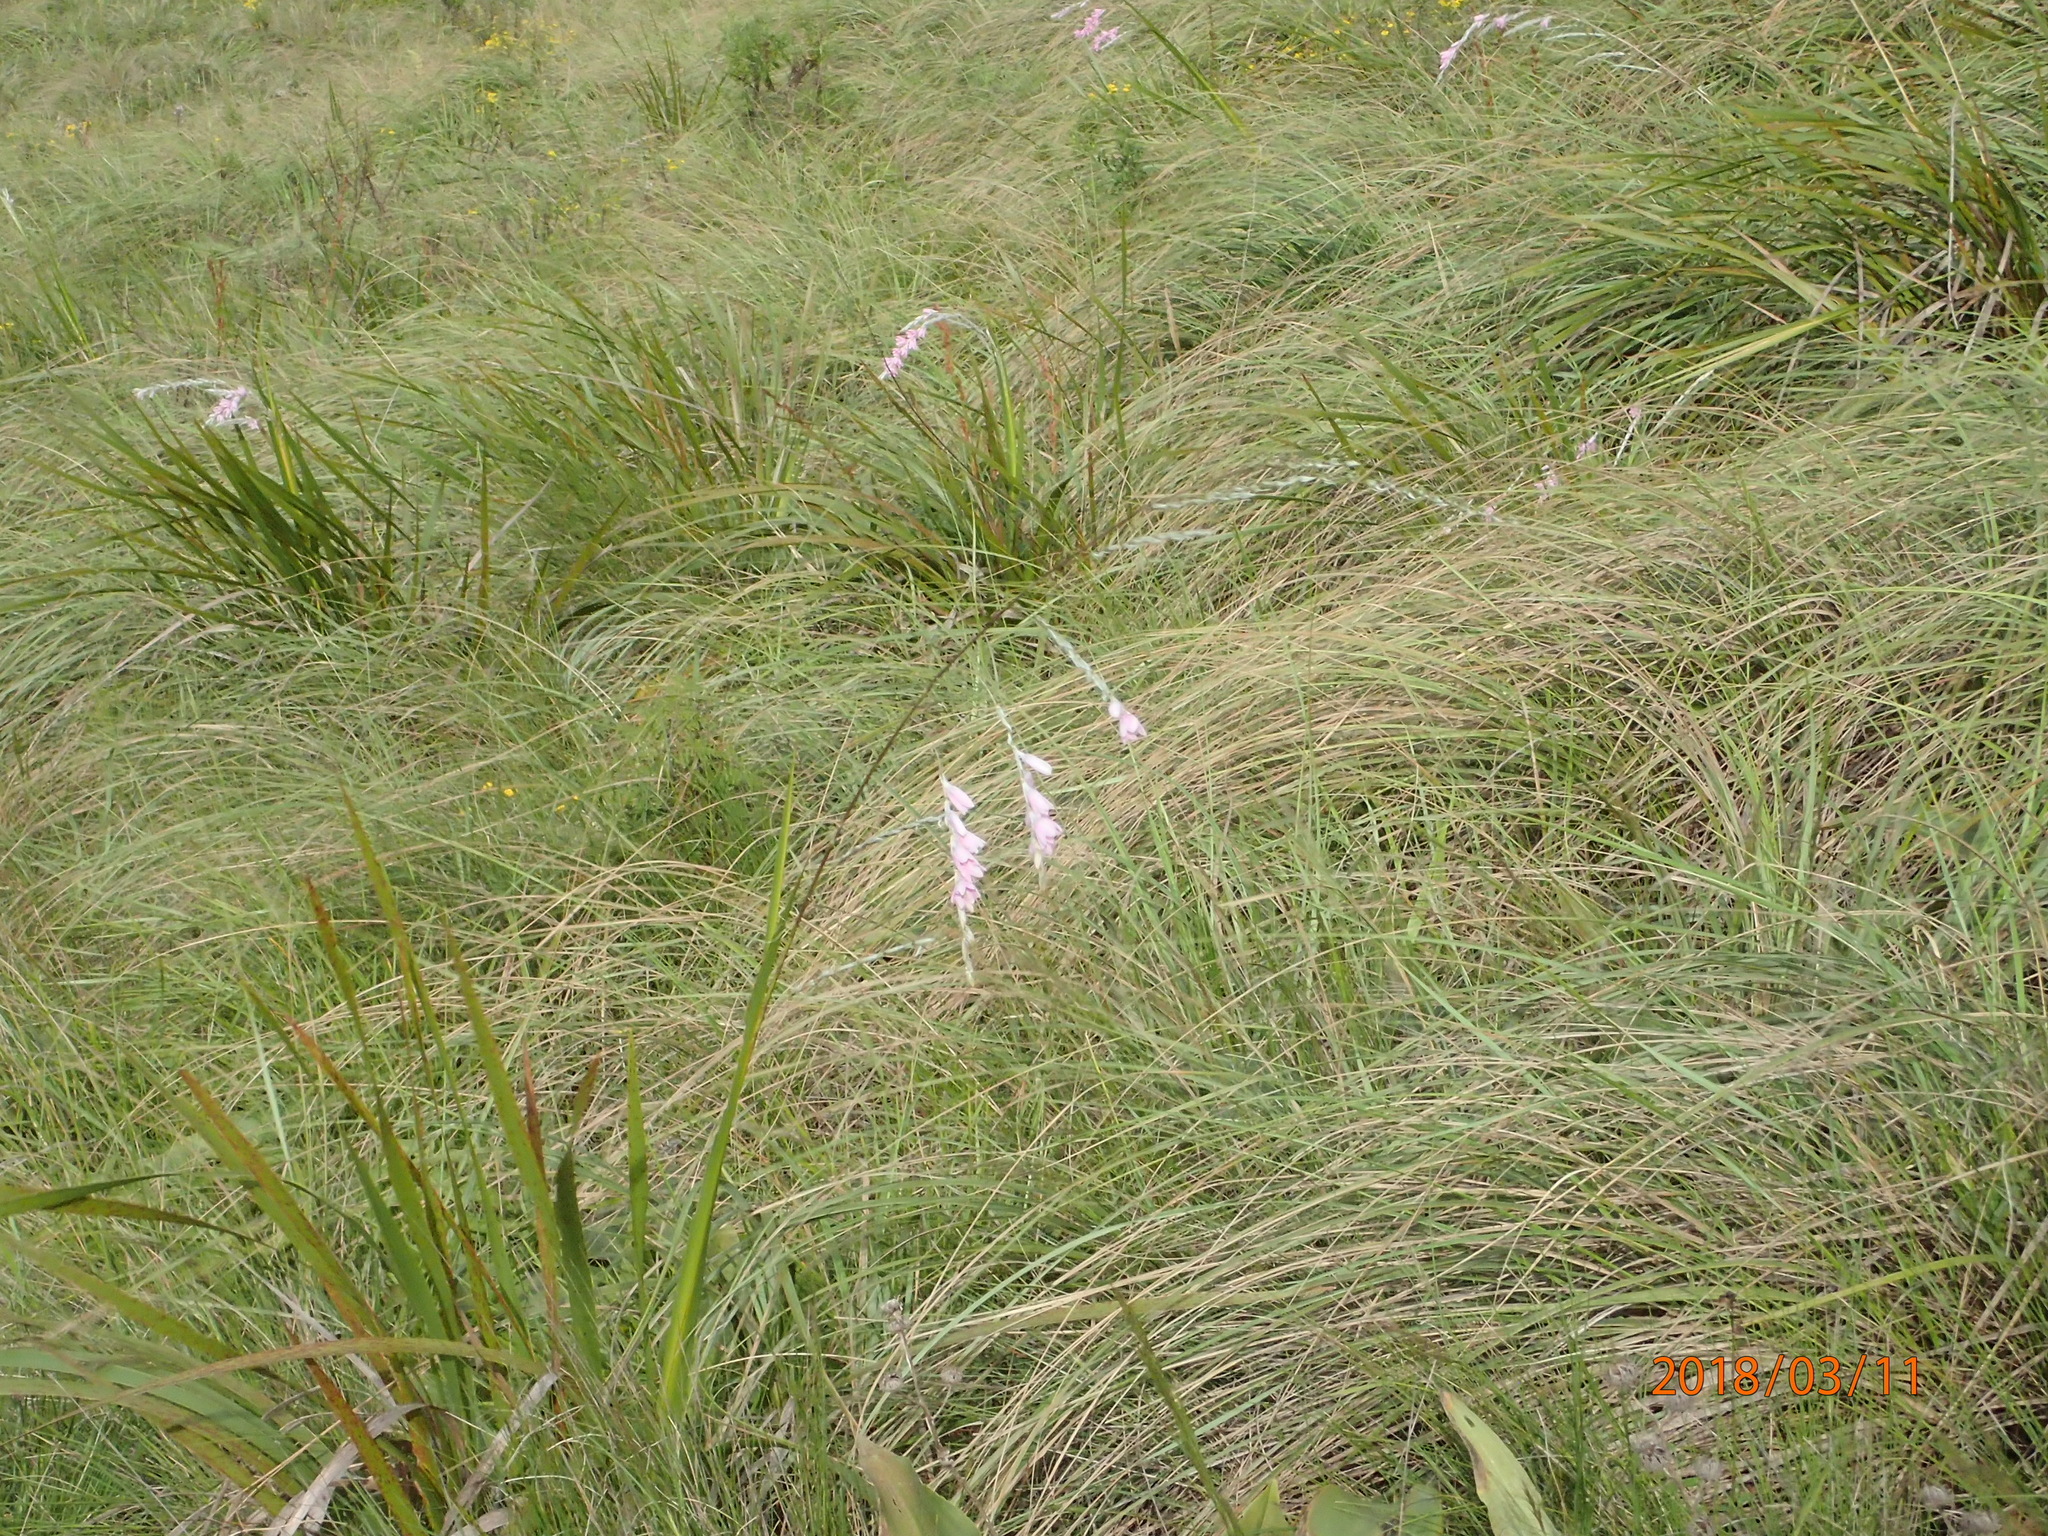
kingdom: Plantae
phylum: Tracheophyta
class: Liliopsida
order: Asparagales
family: Iridaceae
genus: Dierama
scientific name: Dierama latifolium
